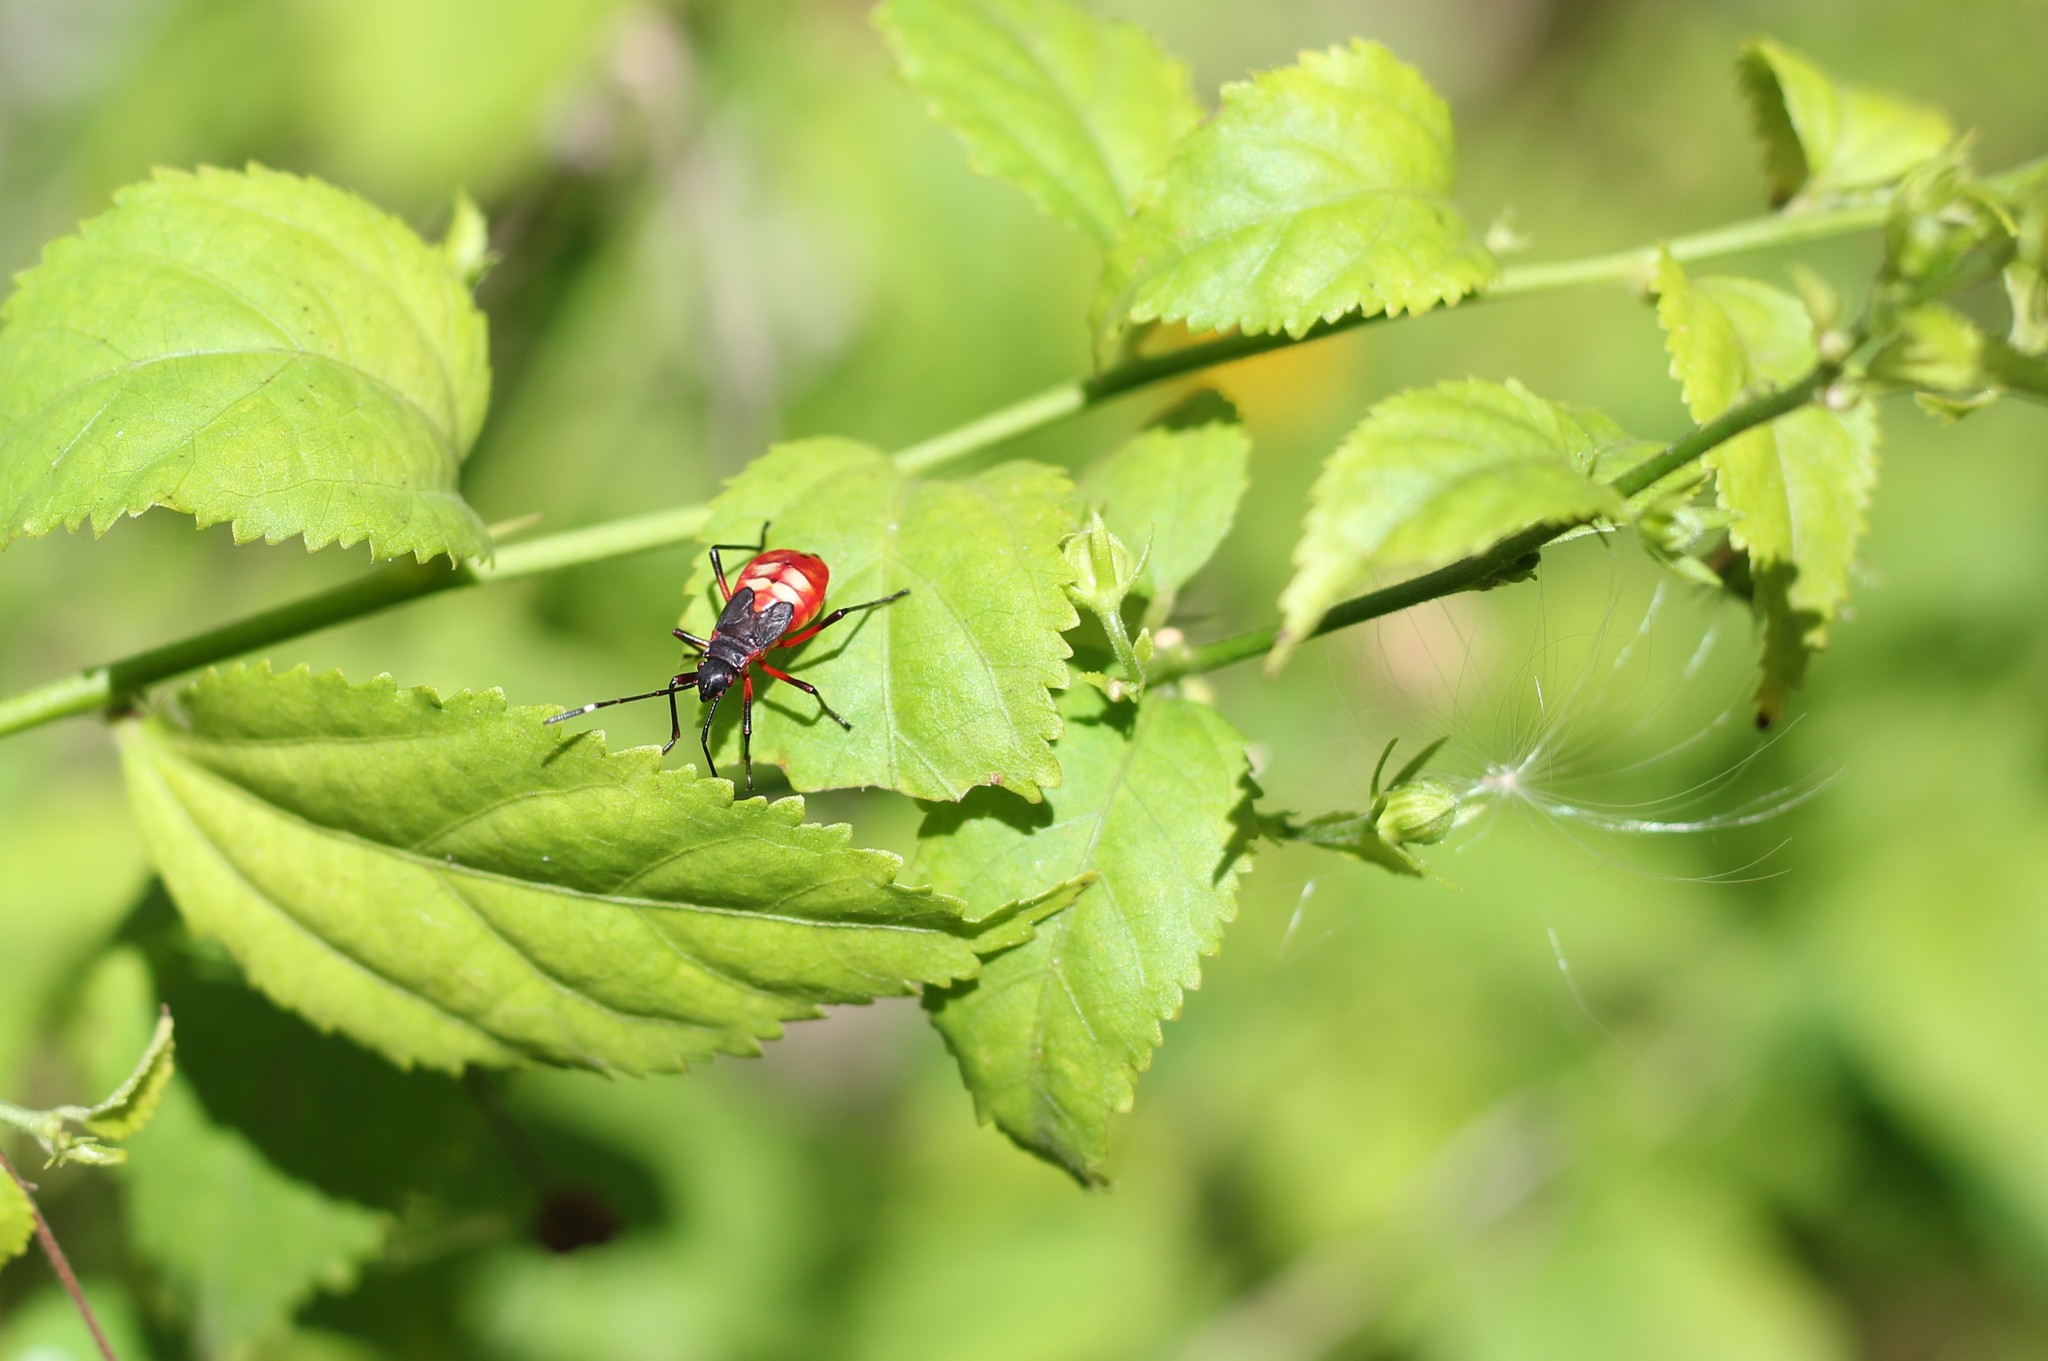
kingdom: Animalia
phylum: Arthropoda
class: Insecta
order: Hemiptera
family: Pyrrhocoridae
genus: Dysdercus
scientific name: Dysdercus albofasciatus
